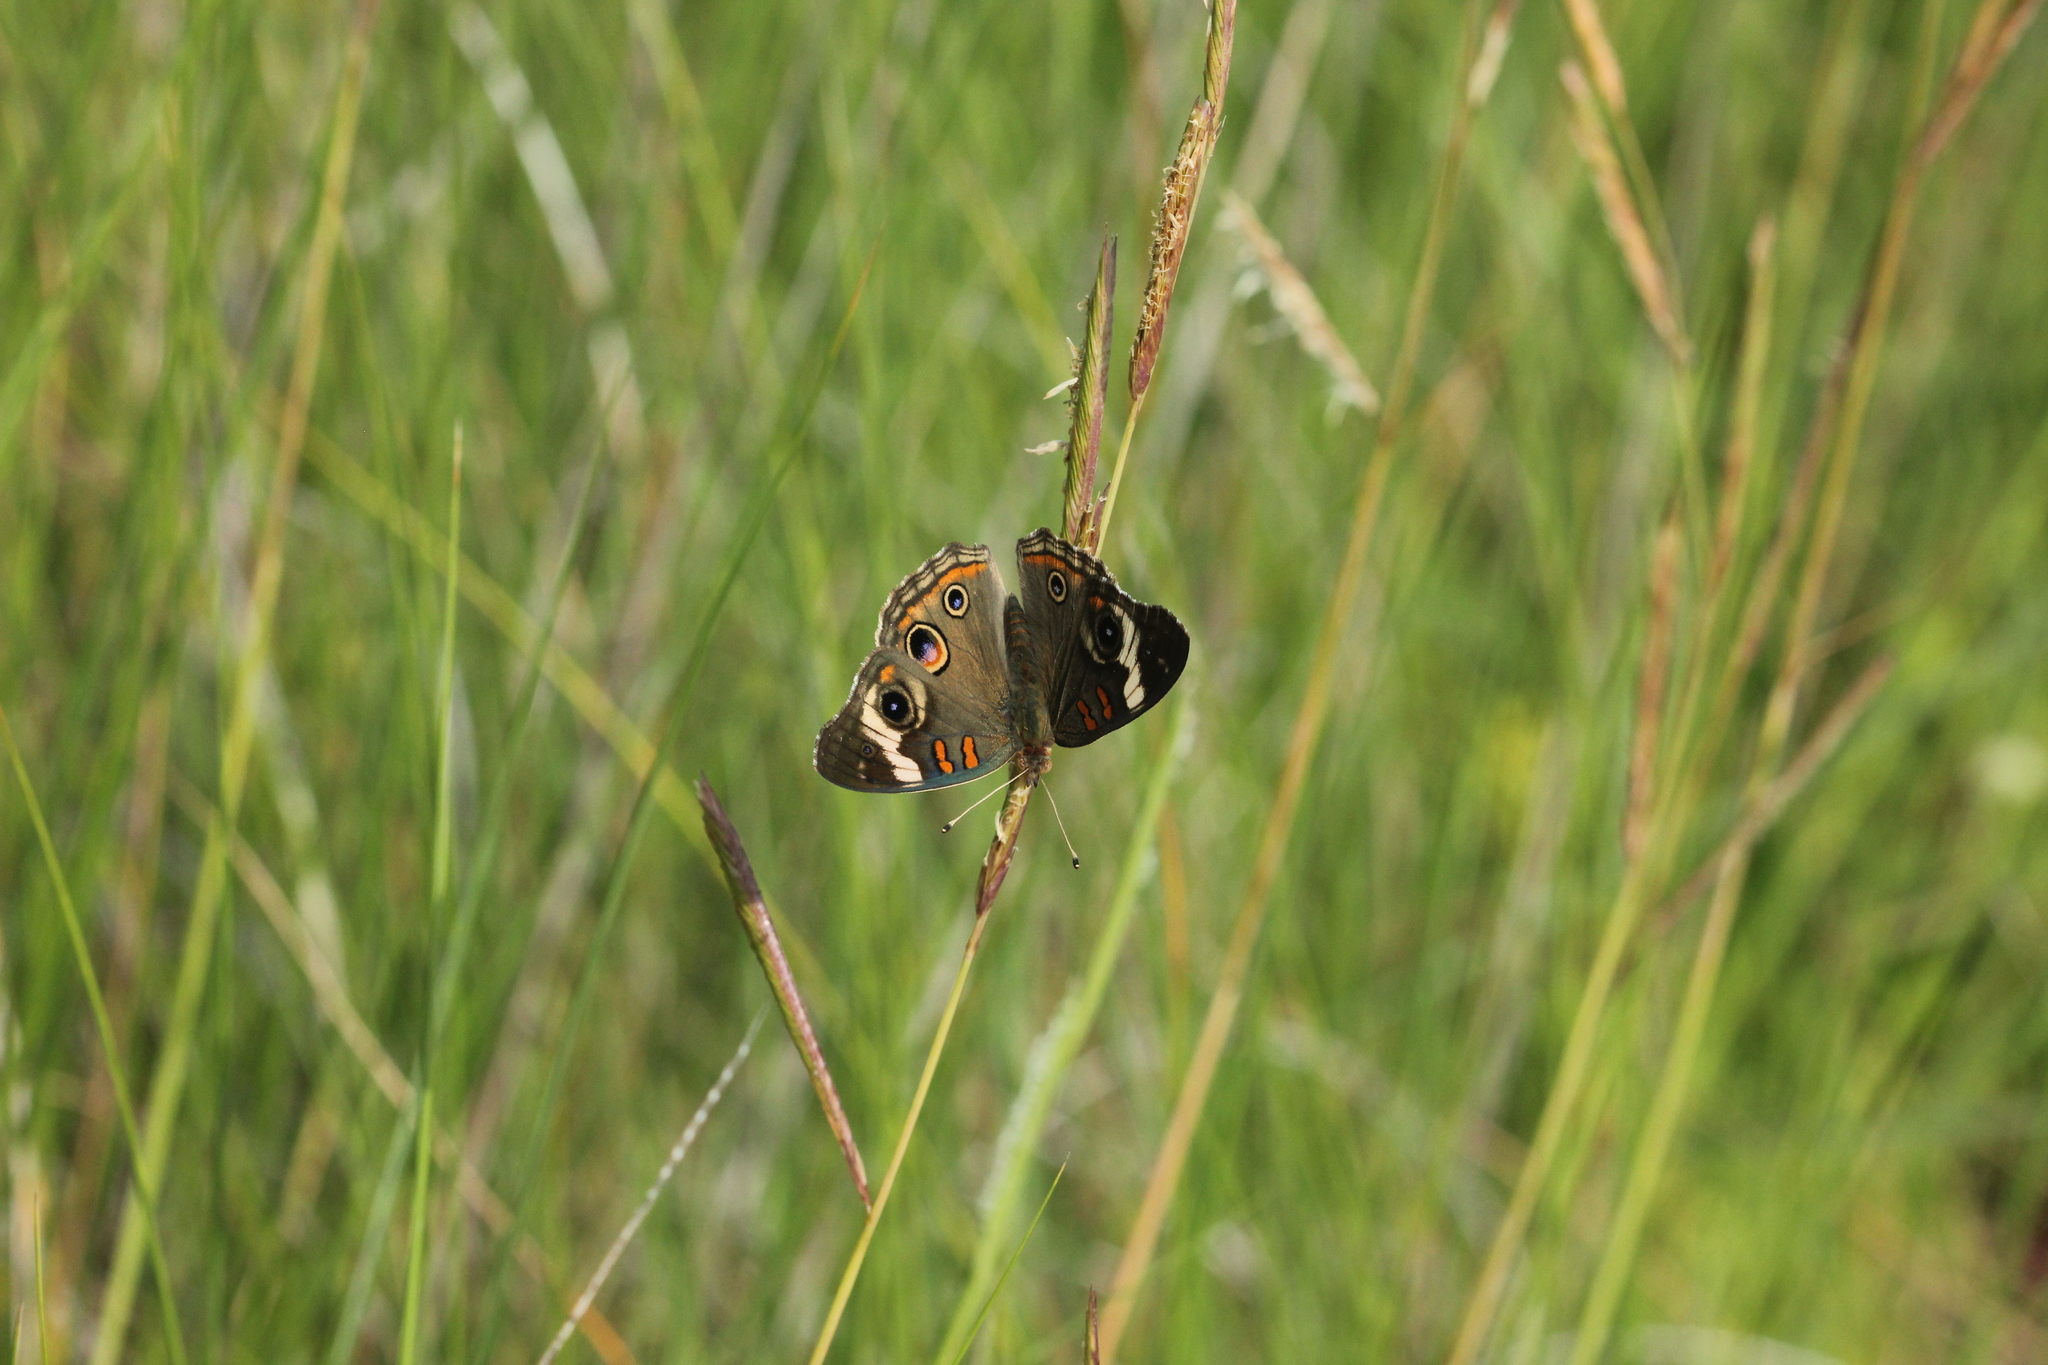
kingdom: Animalia
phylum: Arthropoda
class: Insecta
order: Lepidoptera
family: Nymphalidae
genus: Junonia
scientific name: Junonia coenia
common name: Common buckeye
